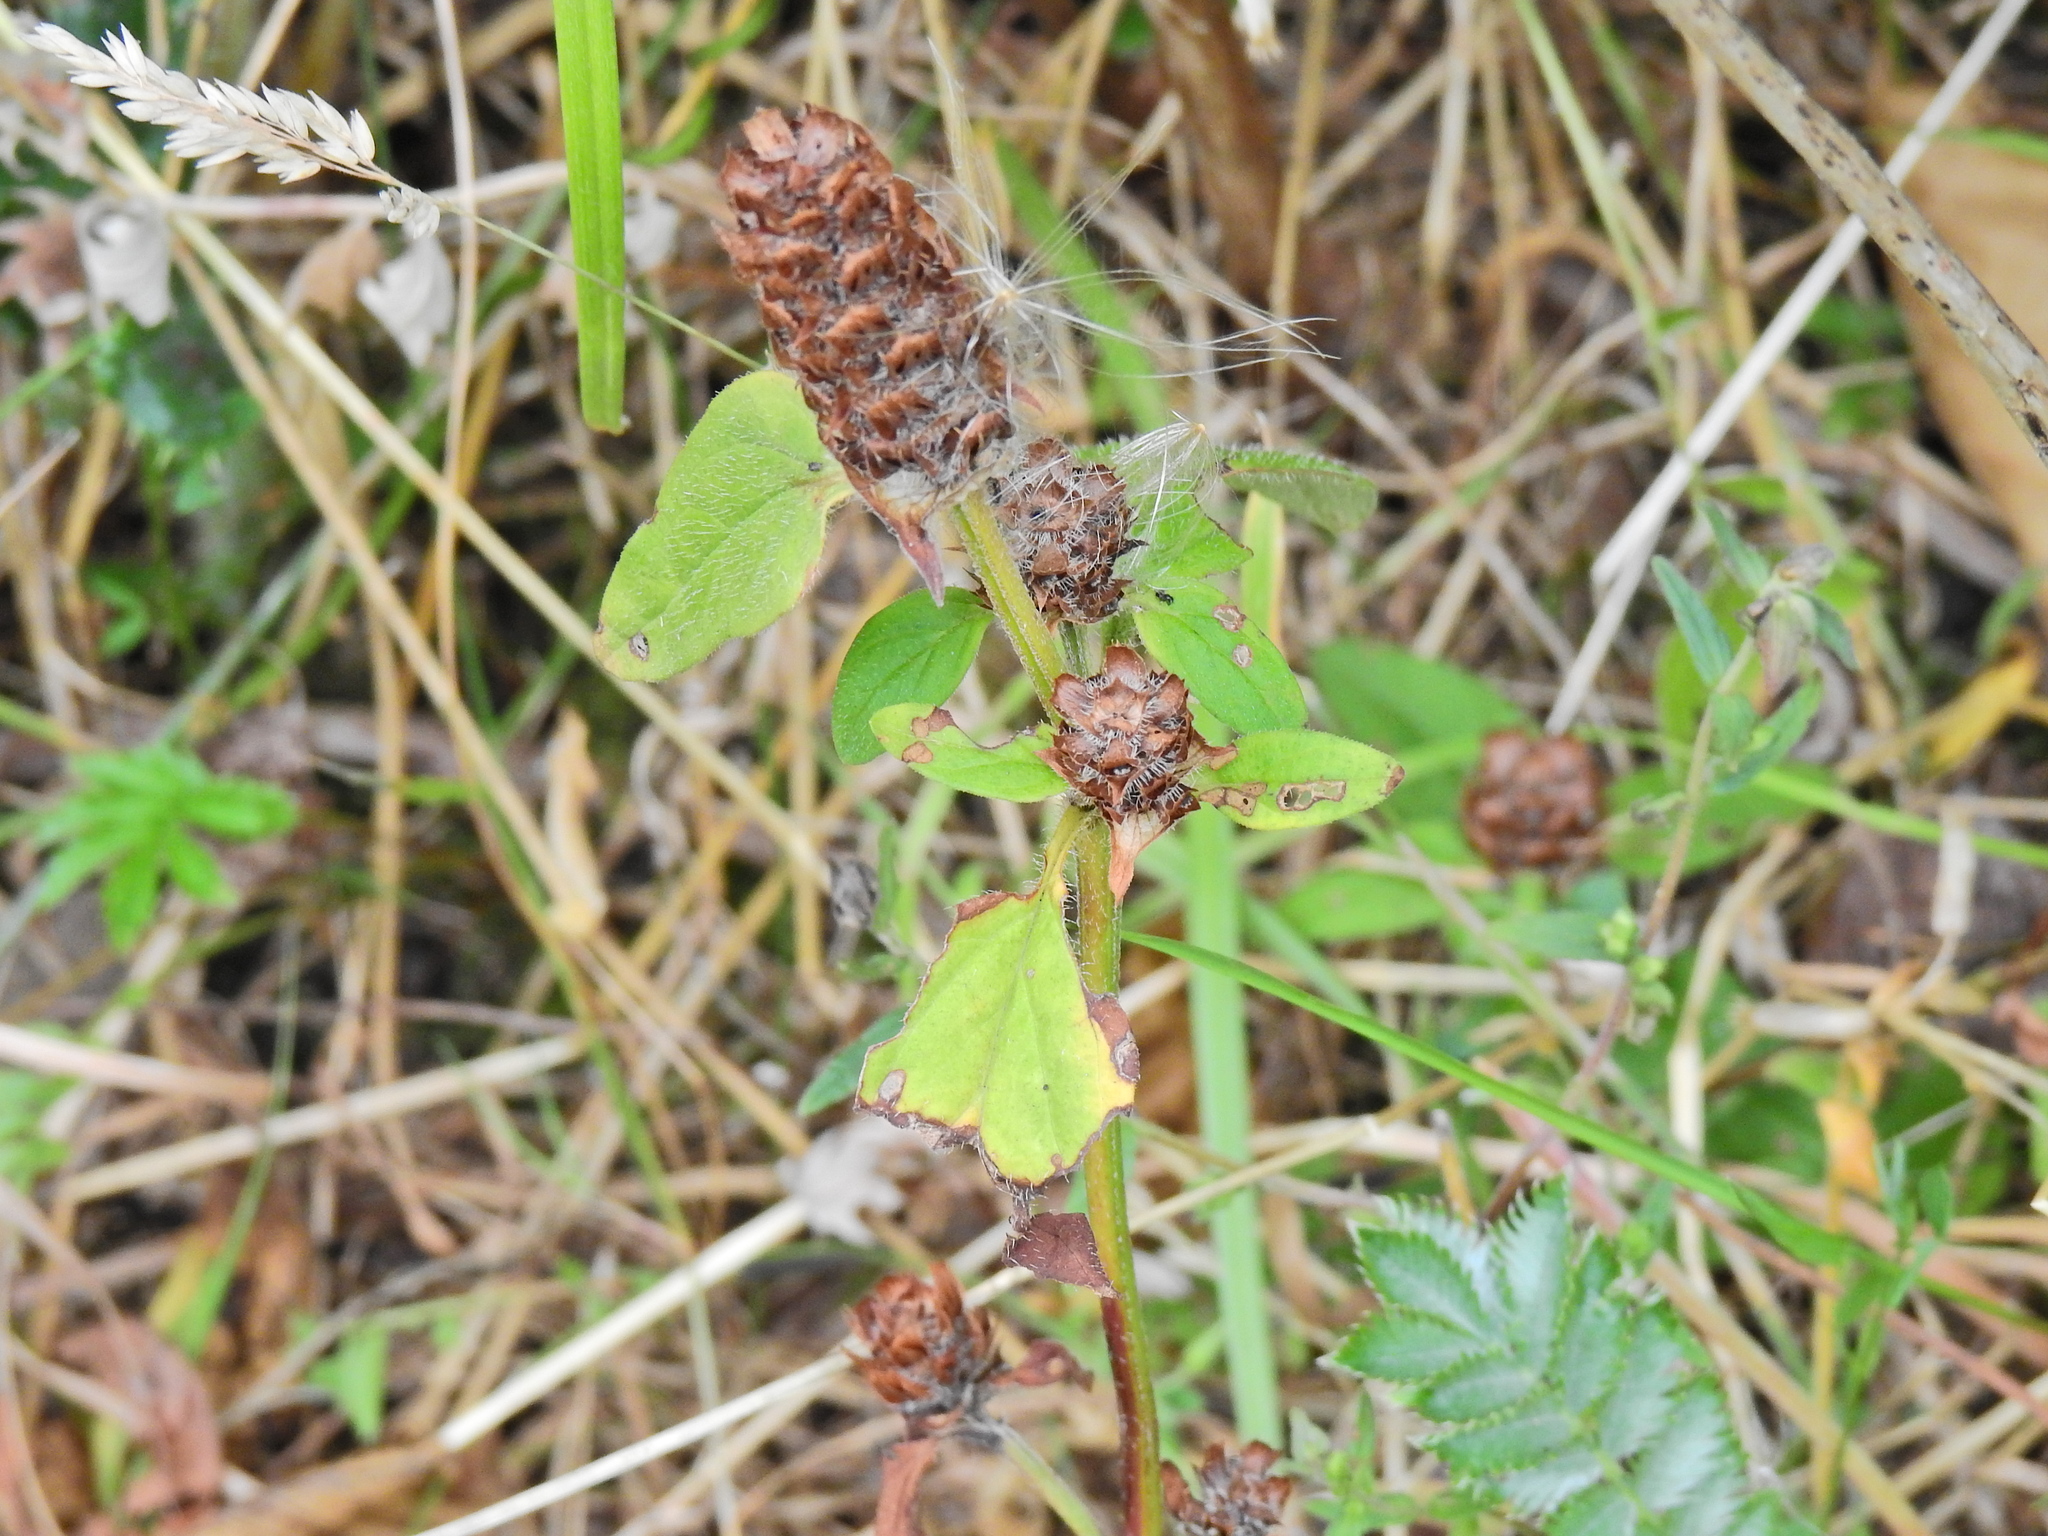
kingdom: Plantae
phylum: Tracheophyta
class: Magnoliopsida
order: Lamiales
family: Lamiaceae
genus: Prunella
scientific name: Prunella vulgaris
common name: Heal-all
